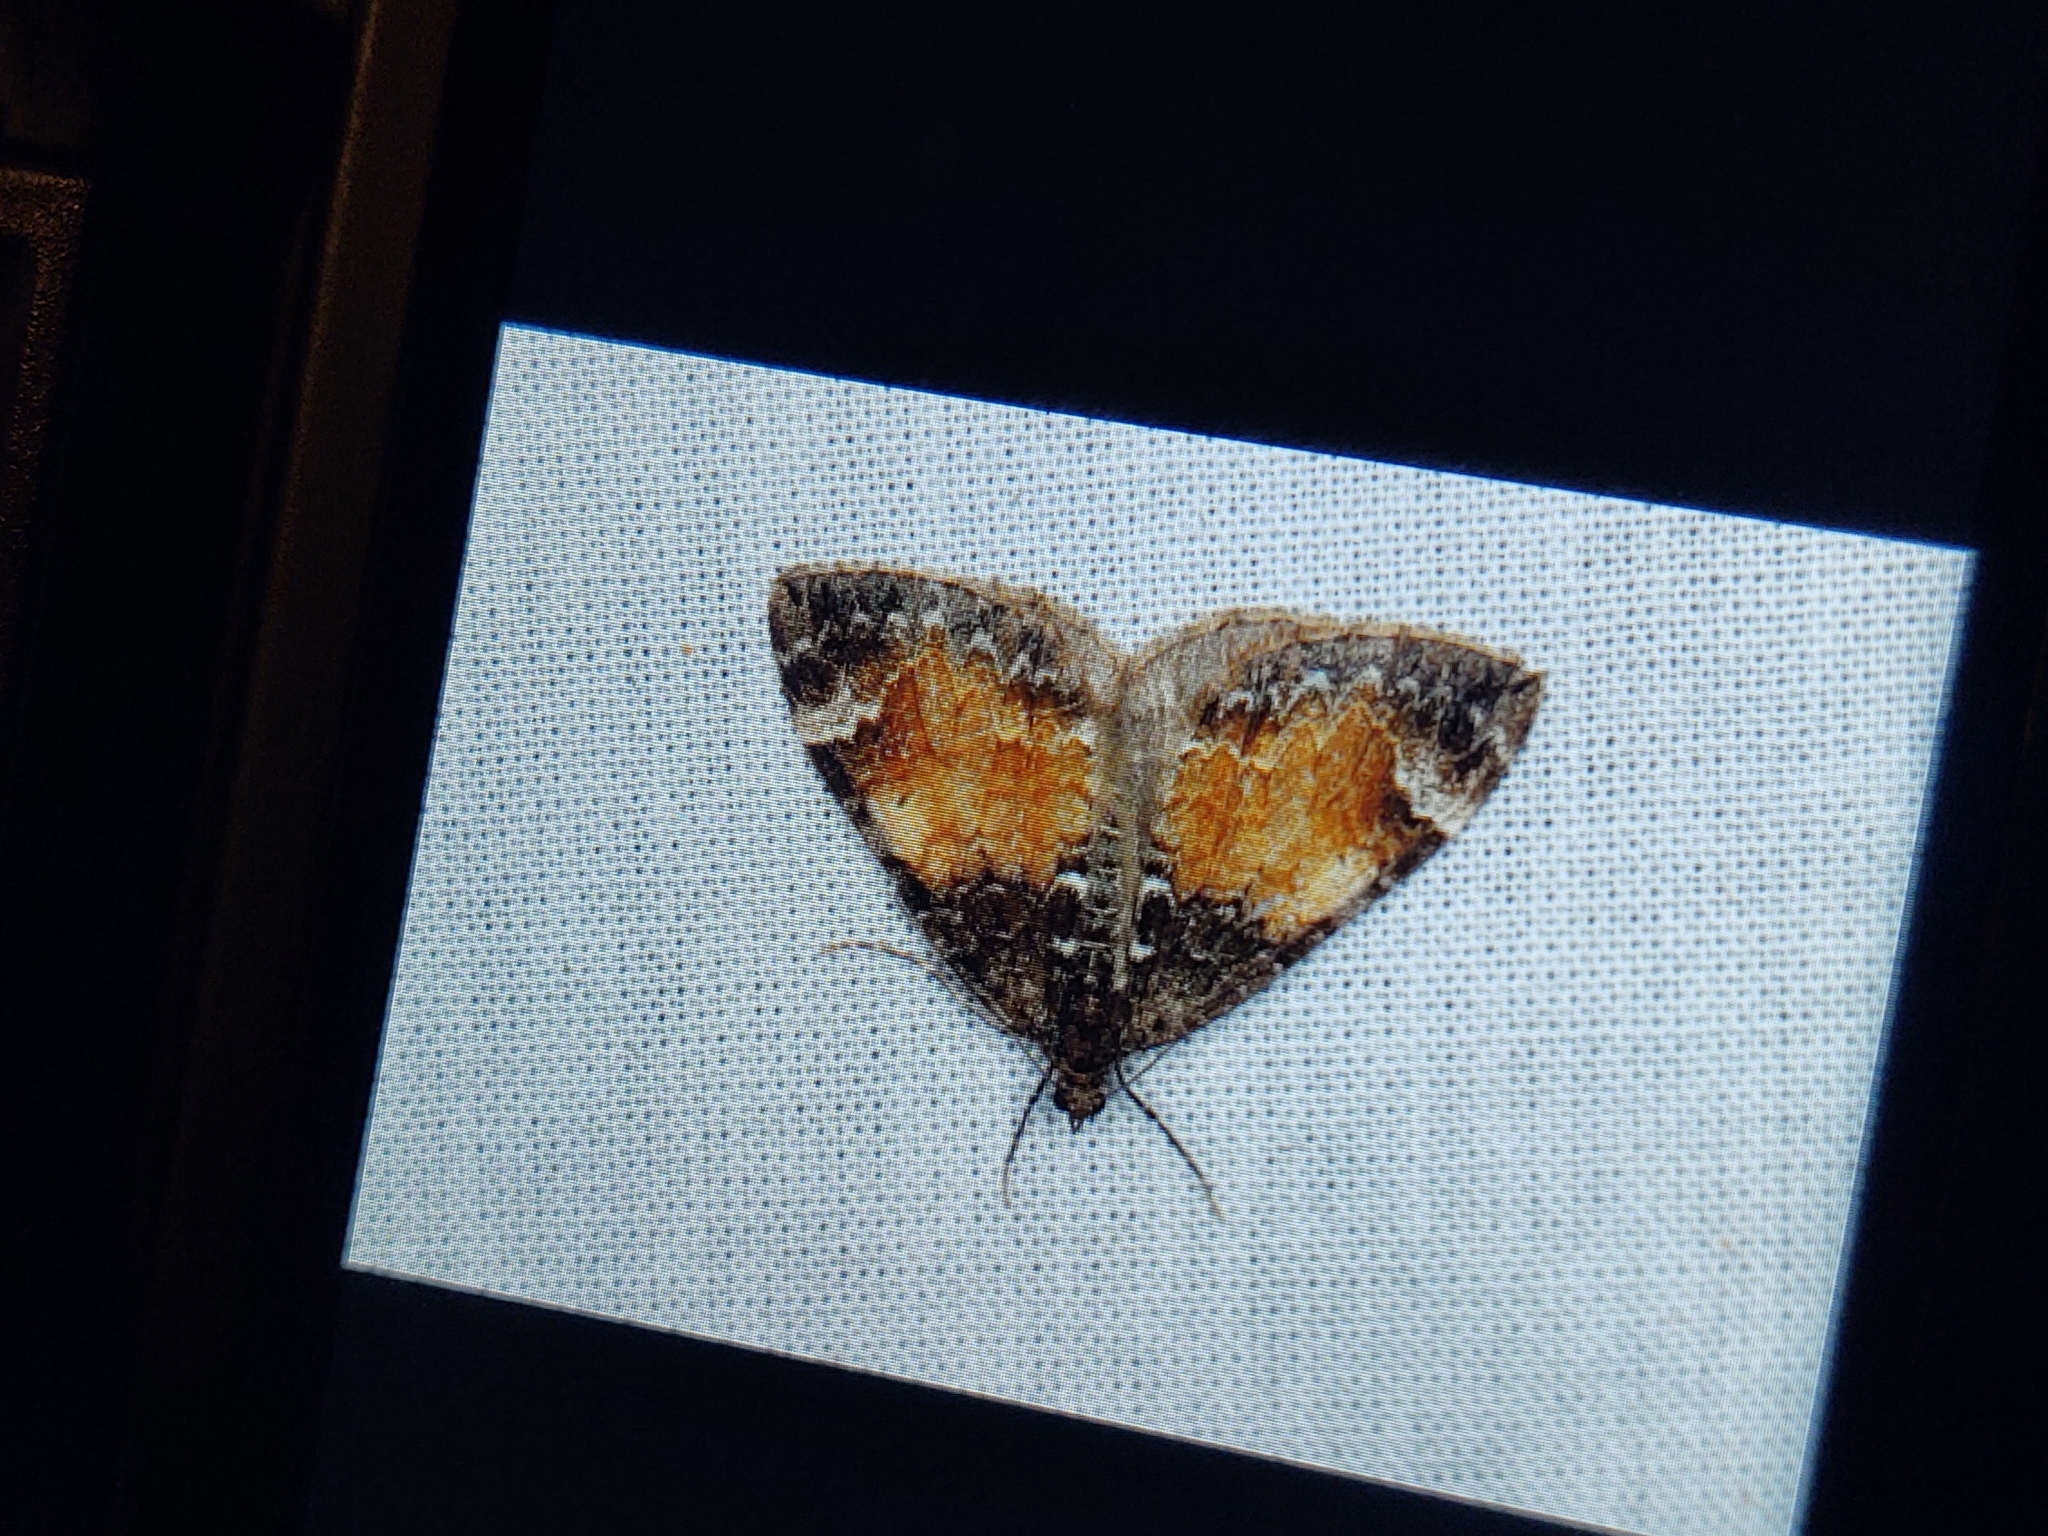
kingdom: Animalia
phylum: Arthropoda
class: Insecta
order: Lepidoptera
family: Geometridae
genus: Dysstroma
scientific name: Dysstroma truncata
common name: Common marbled carpet
